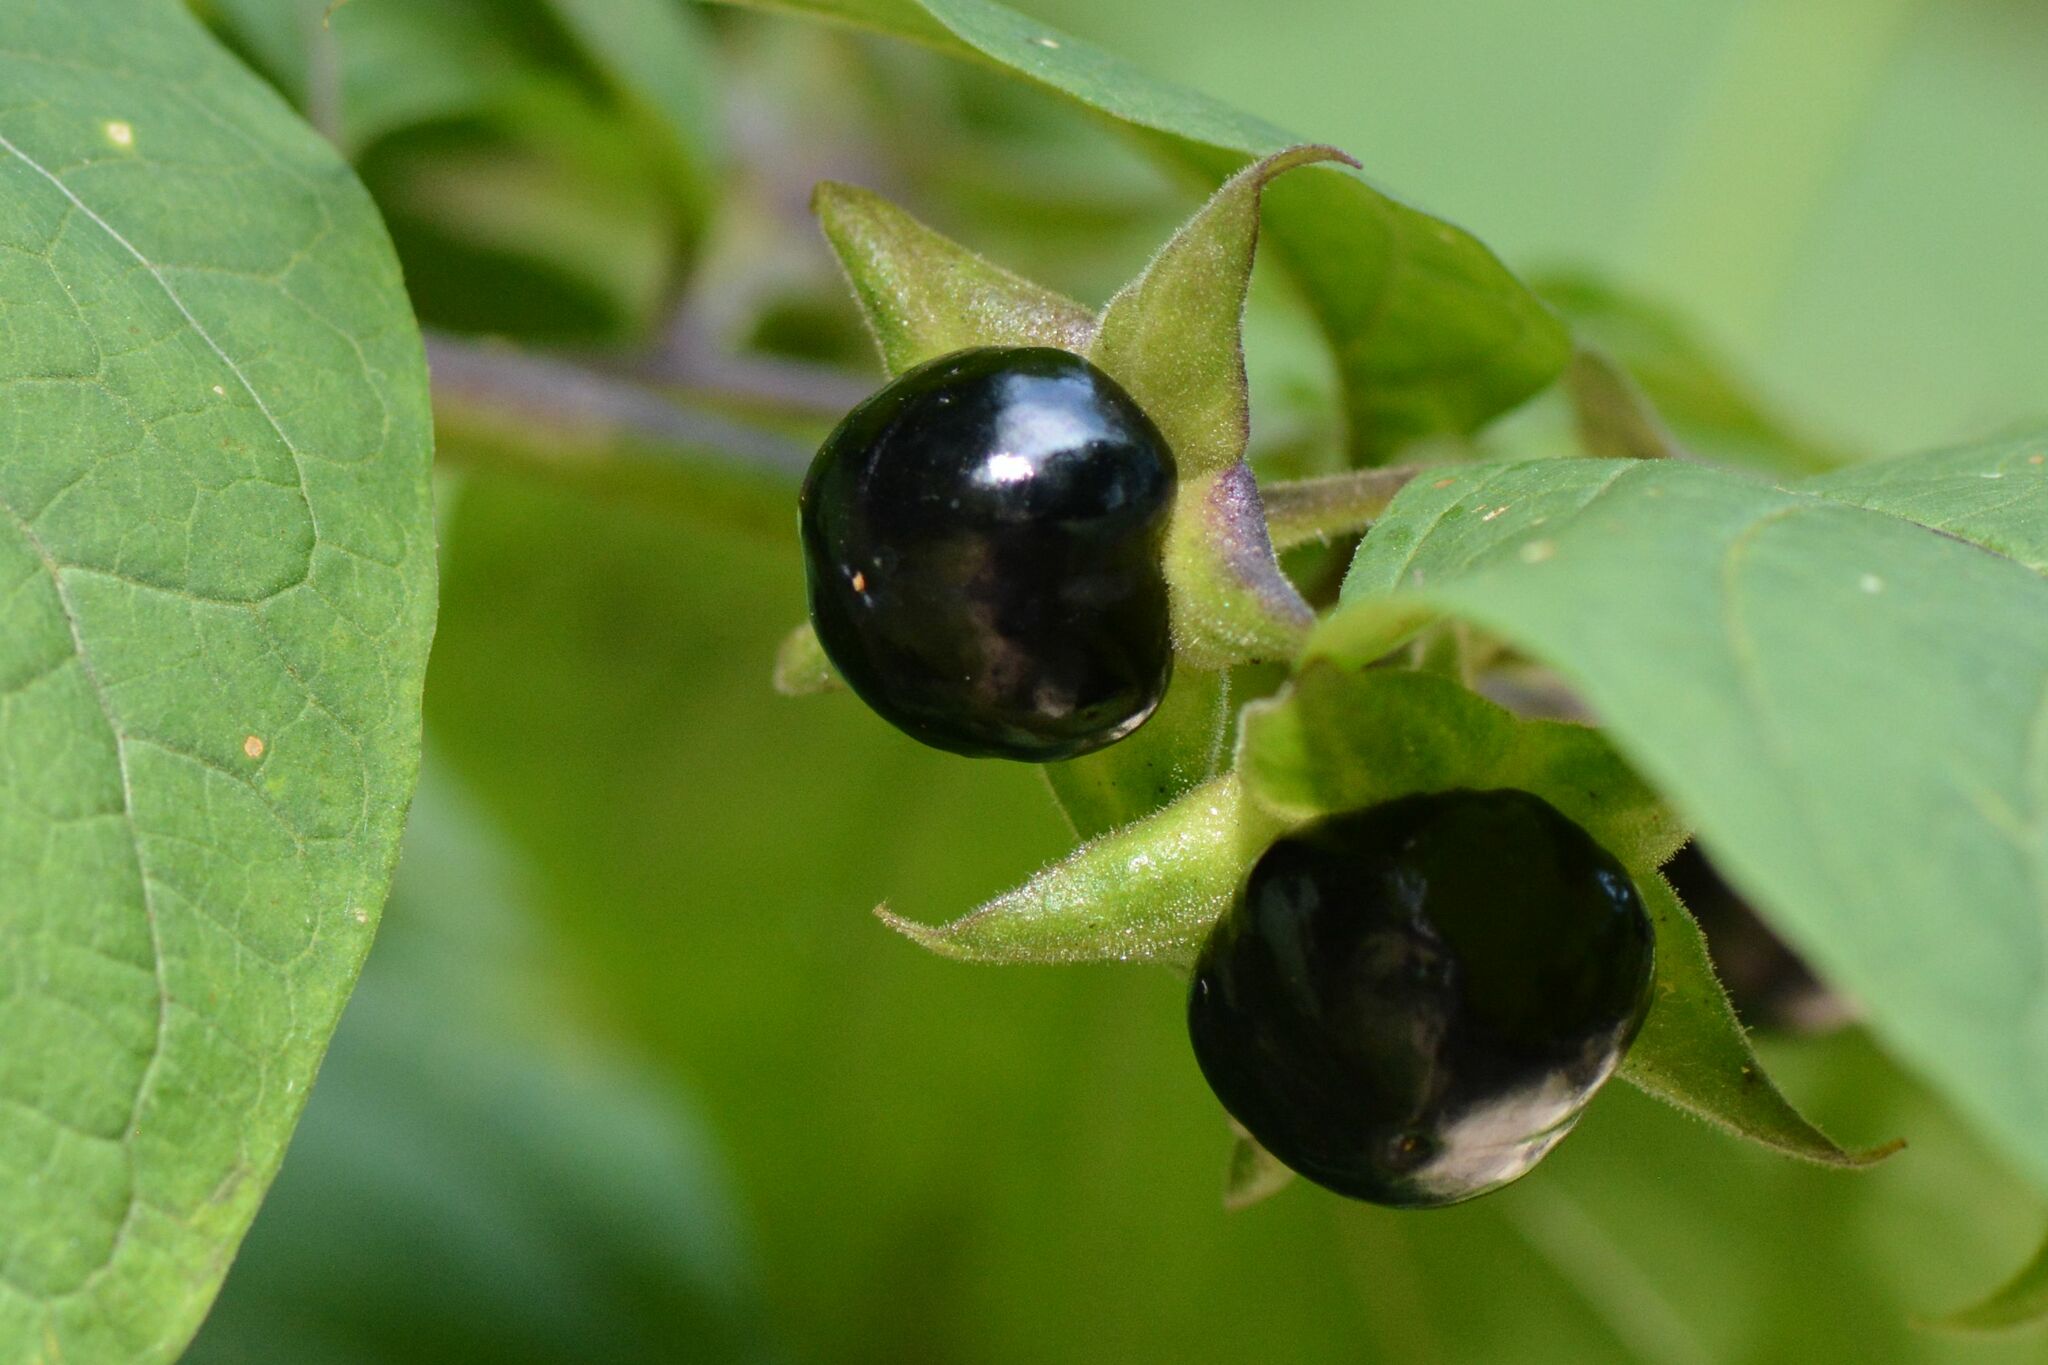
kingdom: Plantae
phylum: Tracheophyta
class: Magnoliopsida
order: Solanales
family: Solanaceae
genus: Atropa
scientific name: Atropa belladonna
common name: Deadly nightshade
